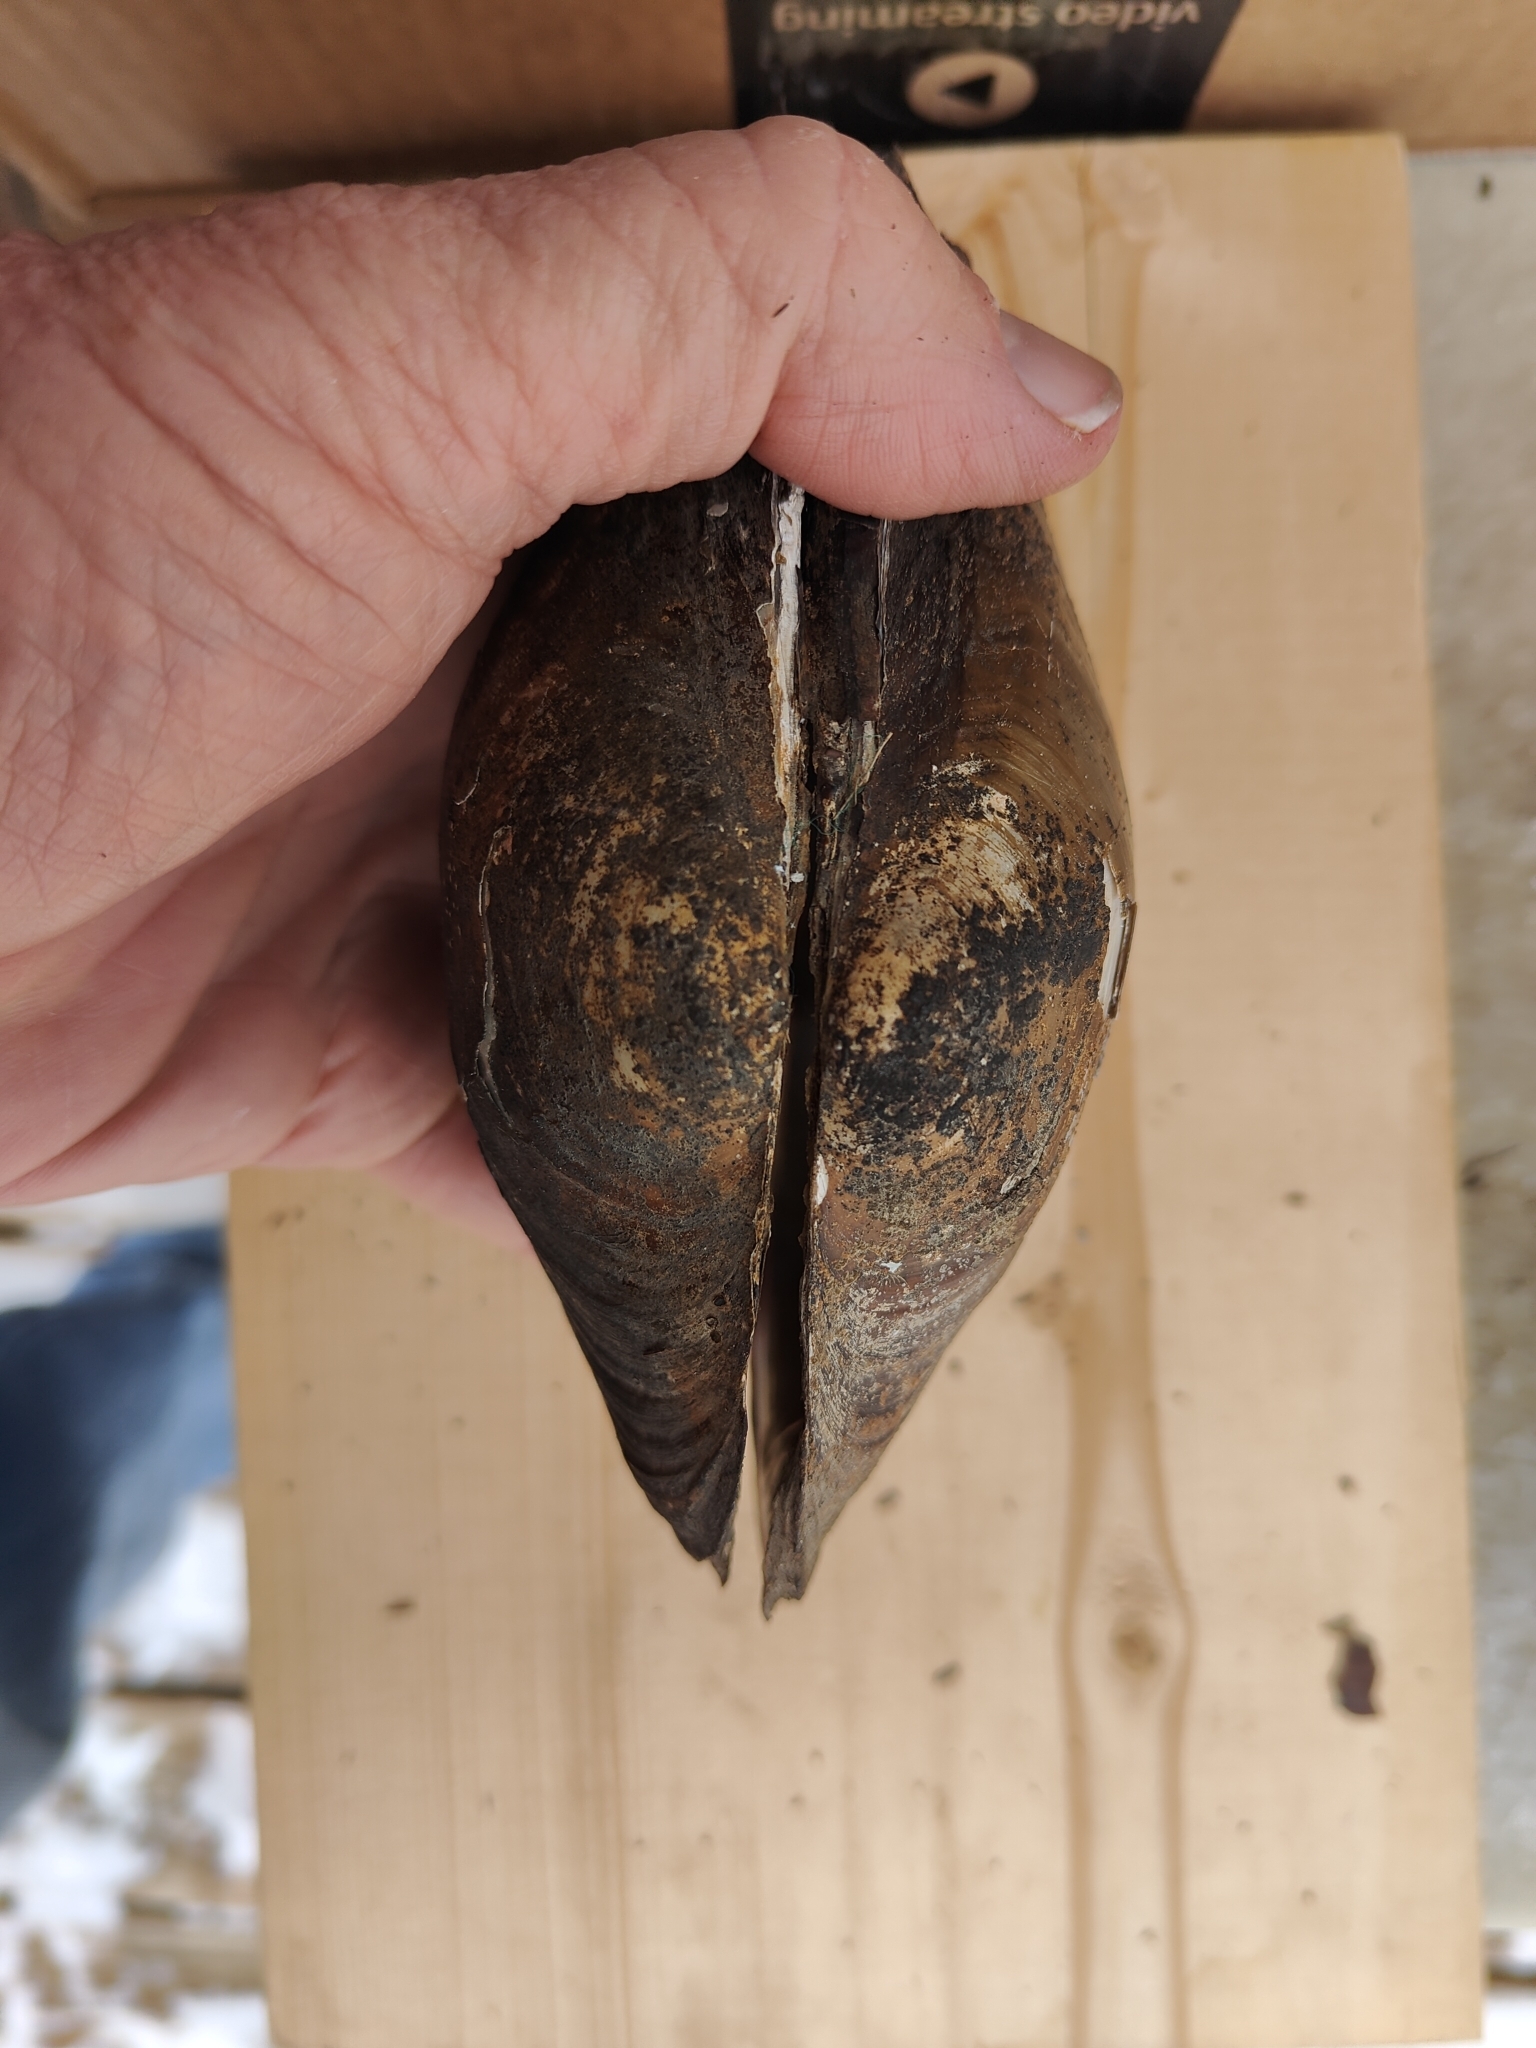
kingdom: Animalia
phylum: Mollusca
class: Bivalvia
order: Unionida
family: Unionidae
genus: Pyganodon
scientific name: Pyganodon grandis
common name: Giant floater
